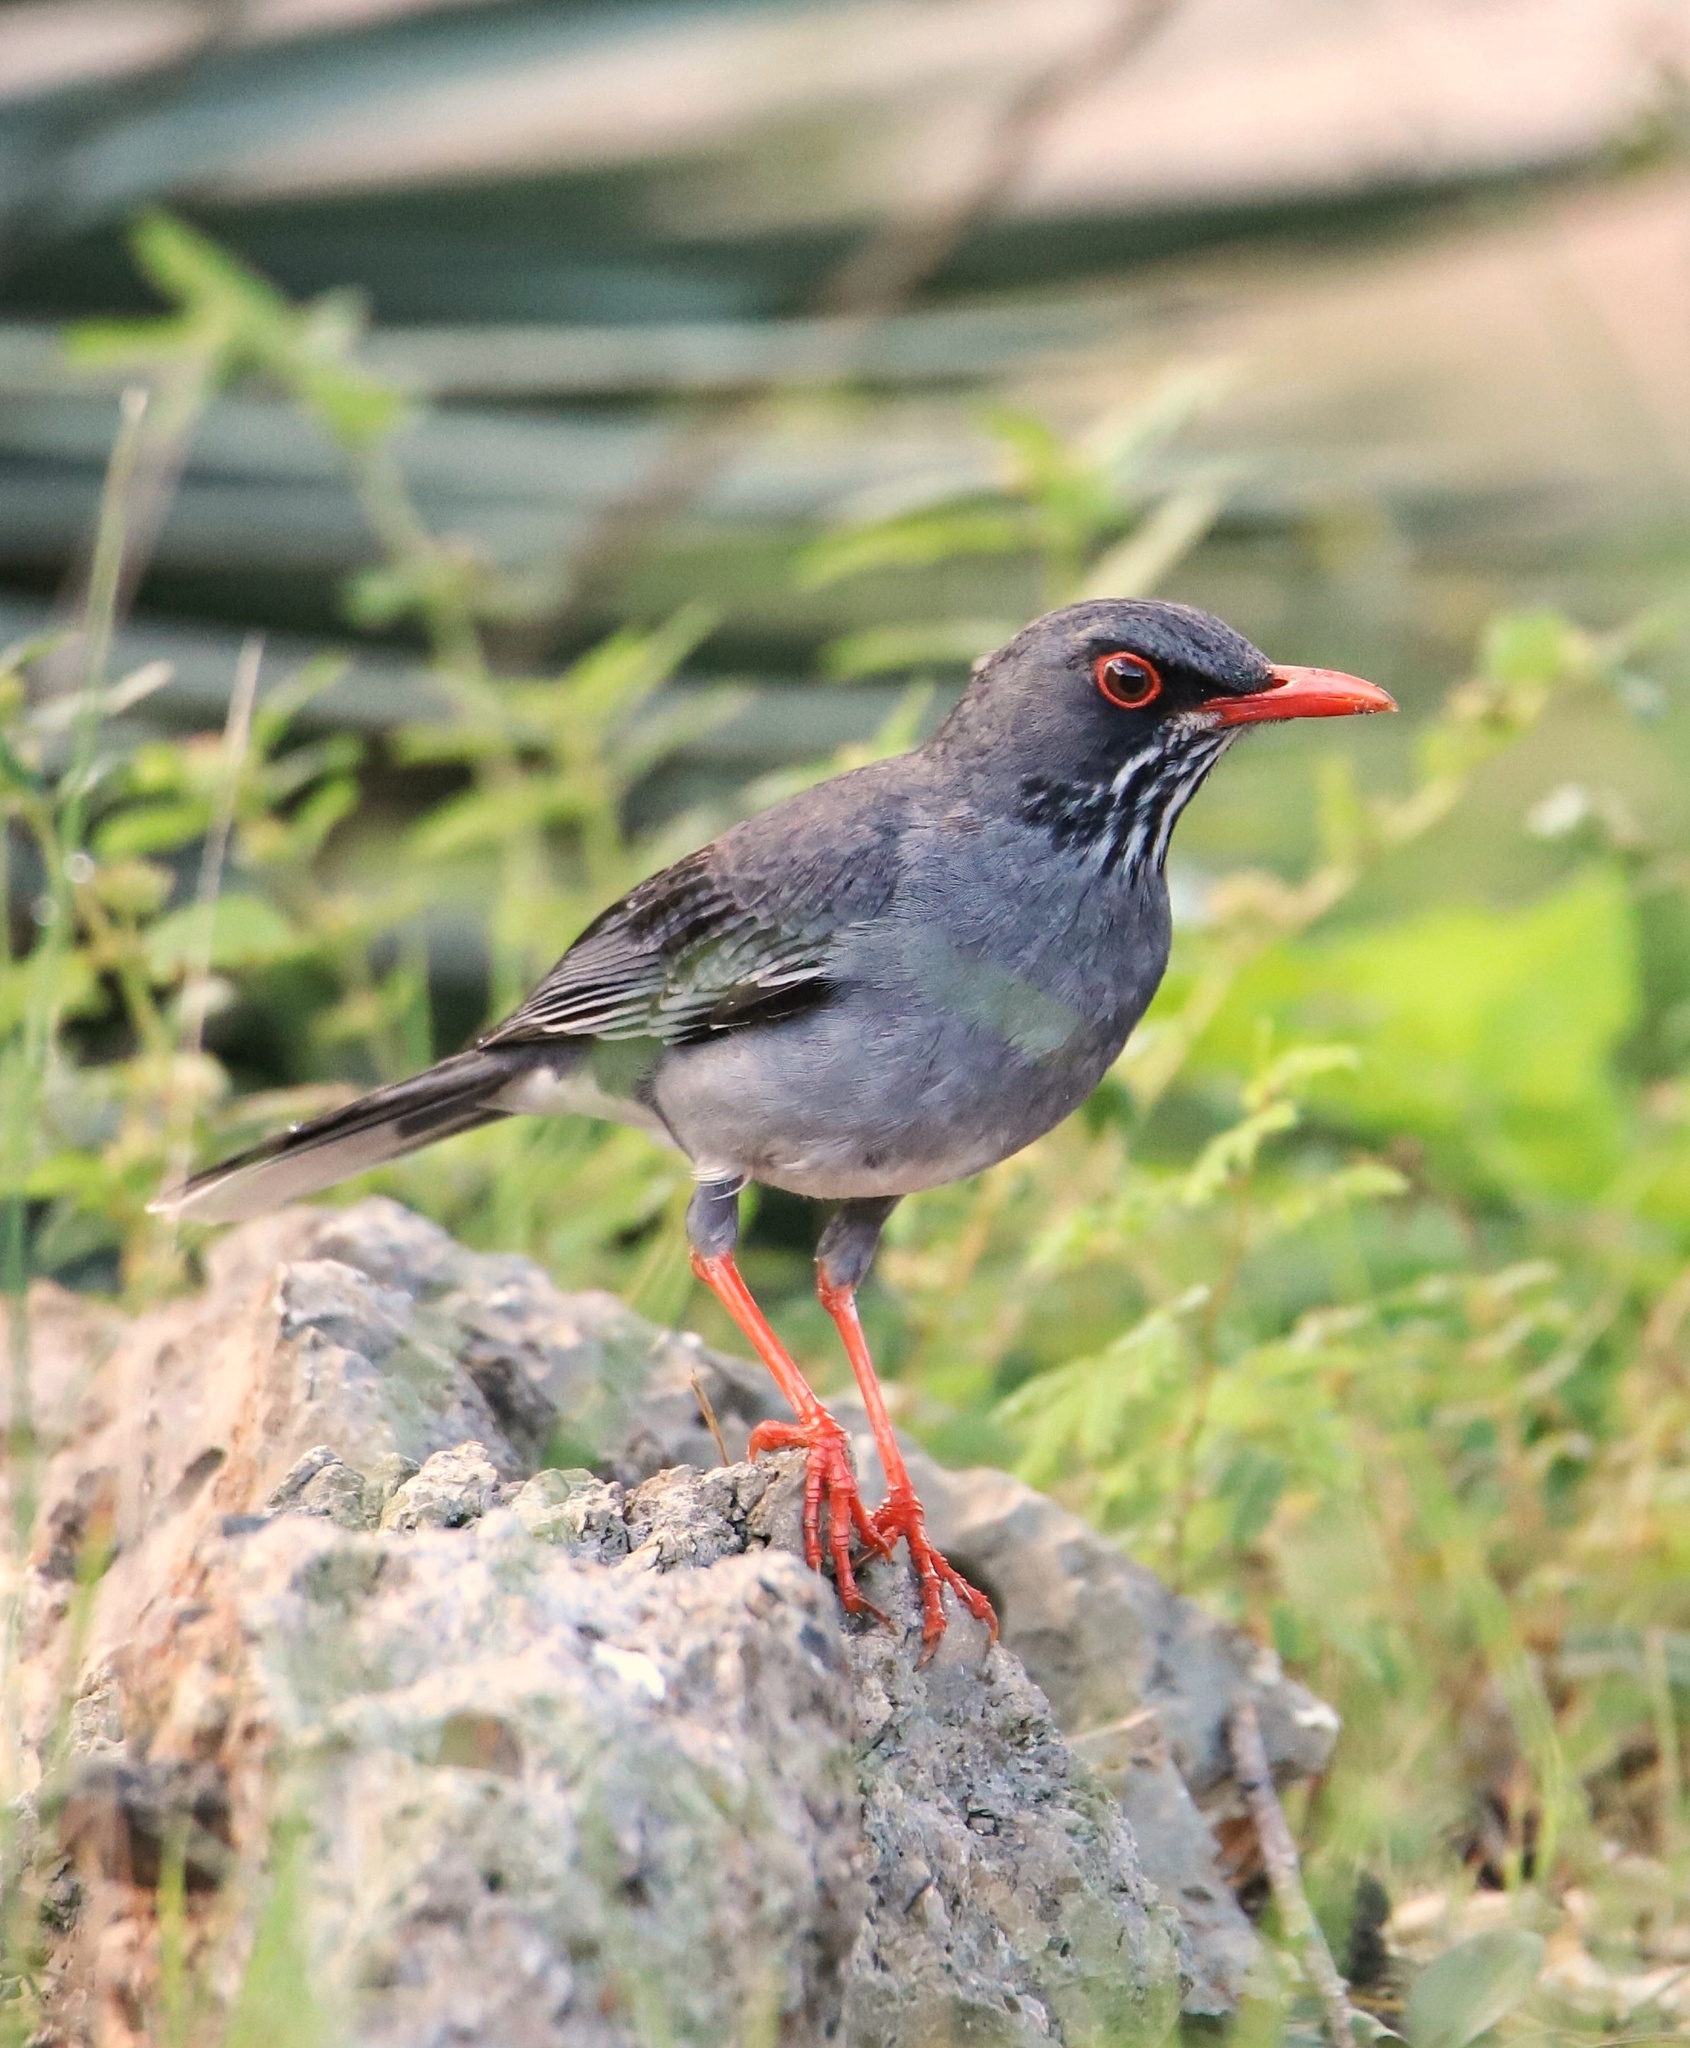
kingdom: Animalia
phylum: Chordata
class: Aves
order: Passeriformes
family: Turdidae
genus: Turdus
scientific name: Turdus plumbeus
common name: Red-legged thrush
